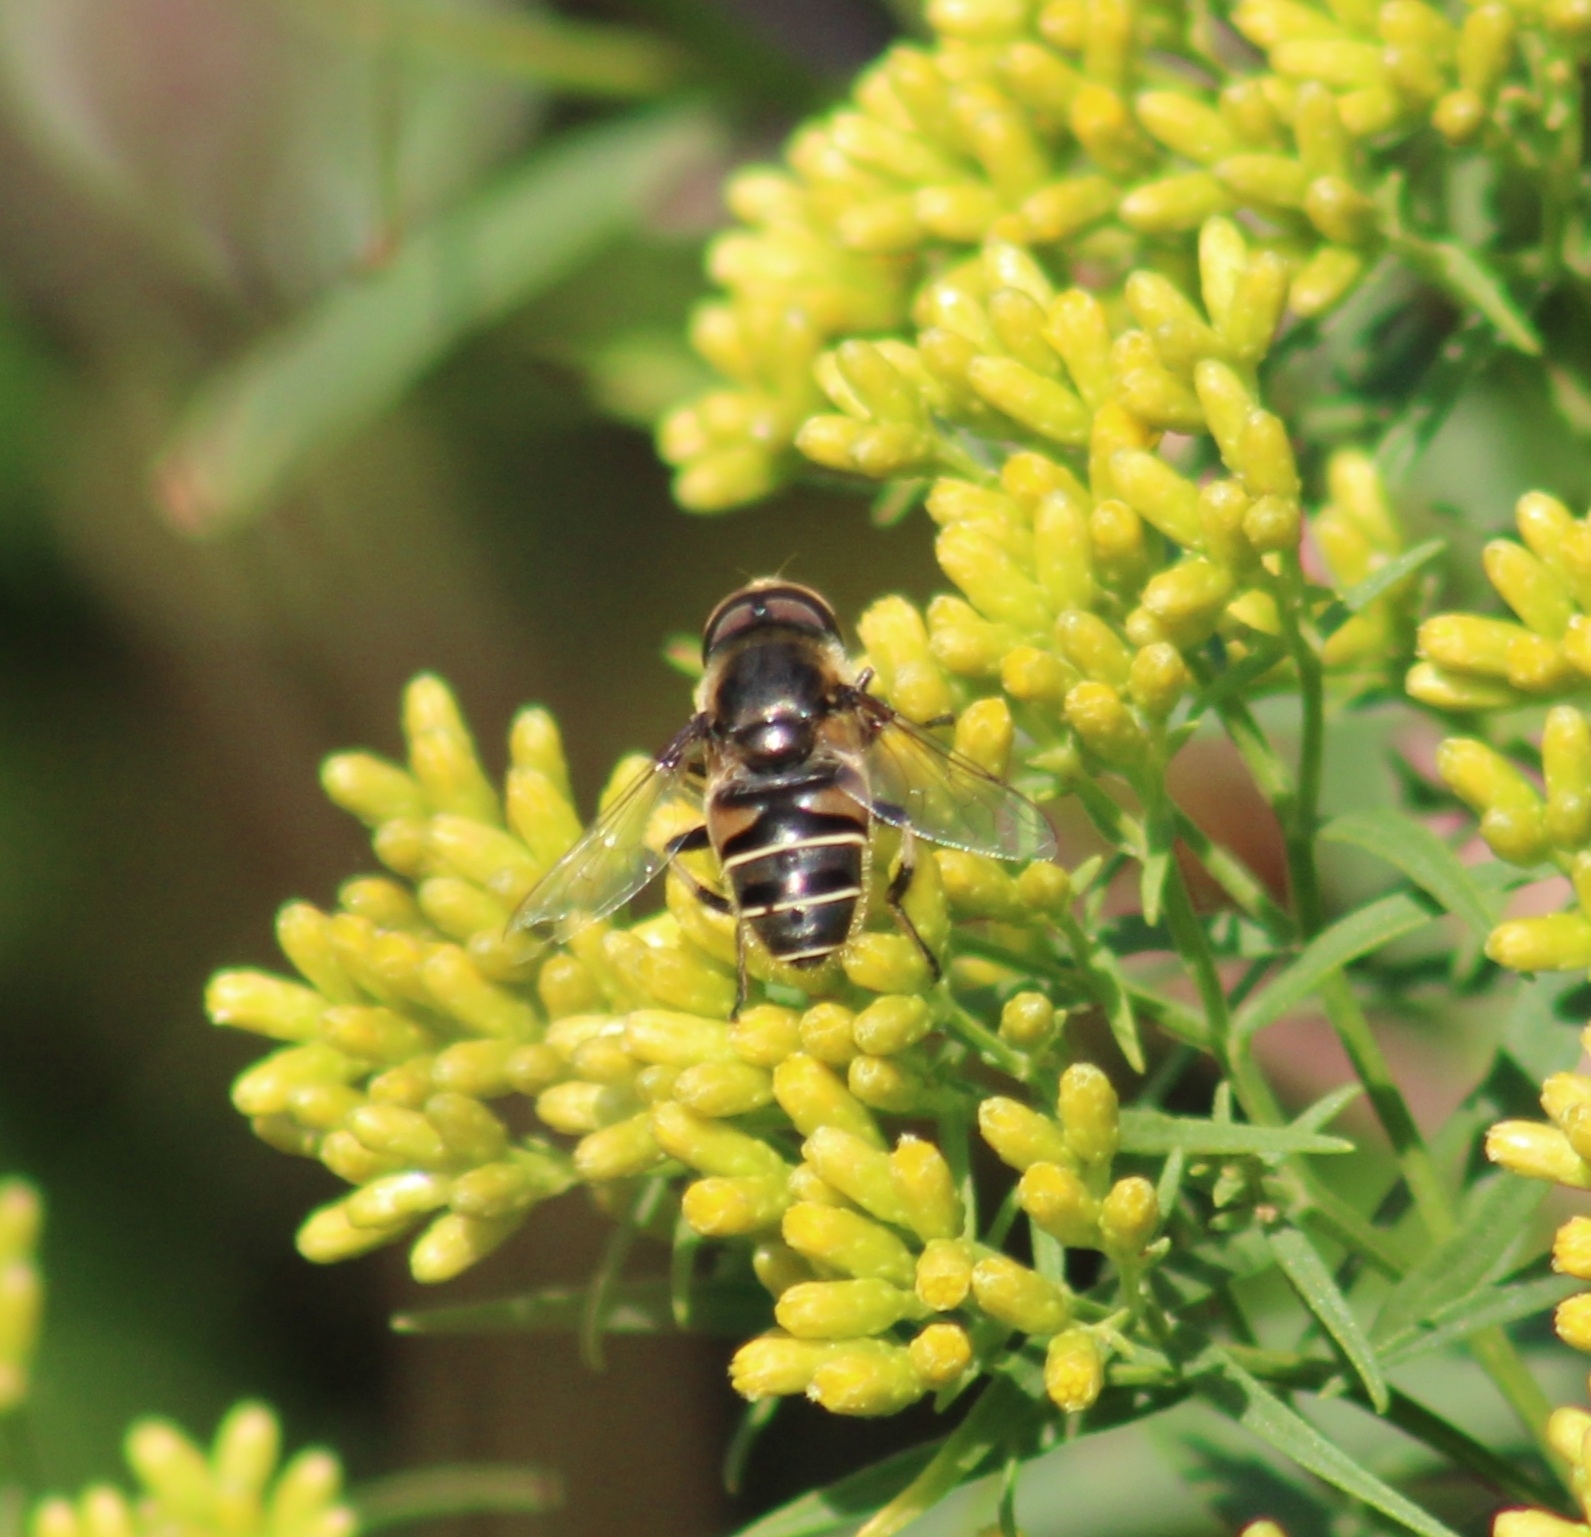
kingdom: Animalia
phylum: Arthropoda
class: Insecta
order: Diptera
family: Syrphidae
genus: Eristalis
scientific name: Eristalis dimidiata
